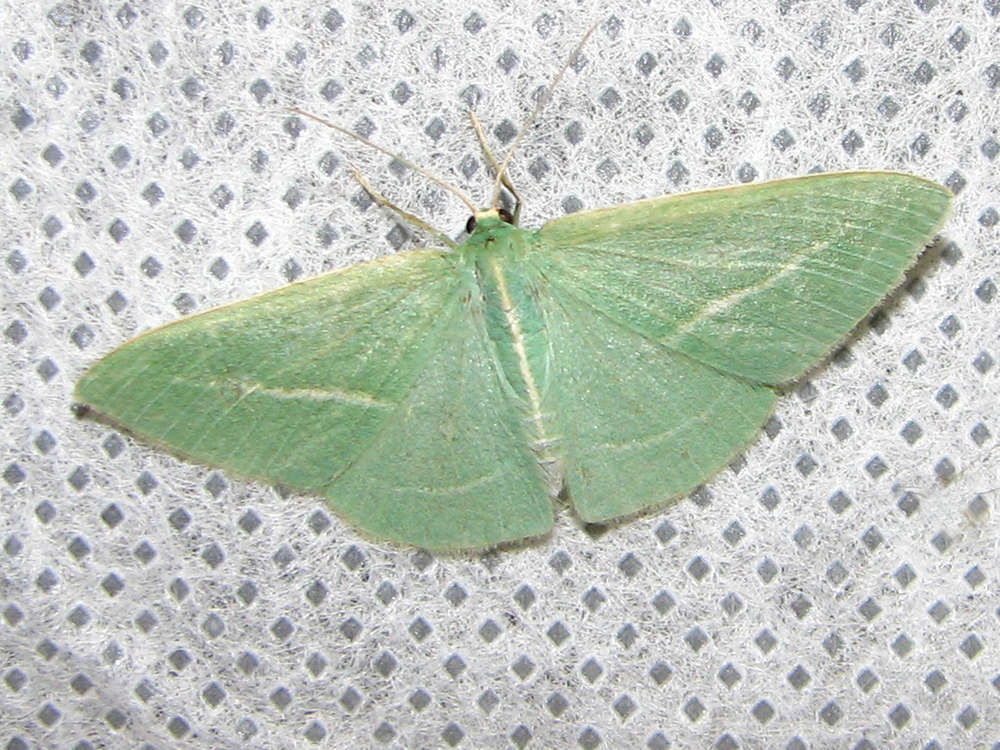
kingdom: Animalia
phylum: Arthropoda
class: Insecta
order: Lepidoptera
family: Geometridae
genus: Chlorocoma
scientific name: Chlorocoma stereota
